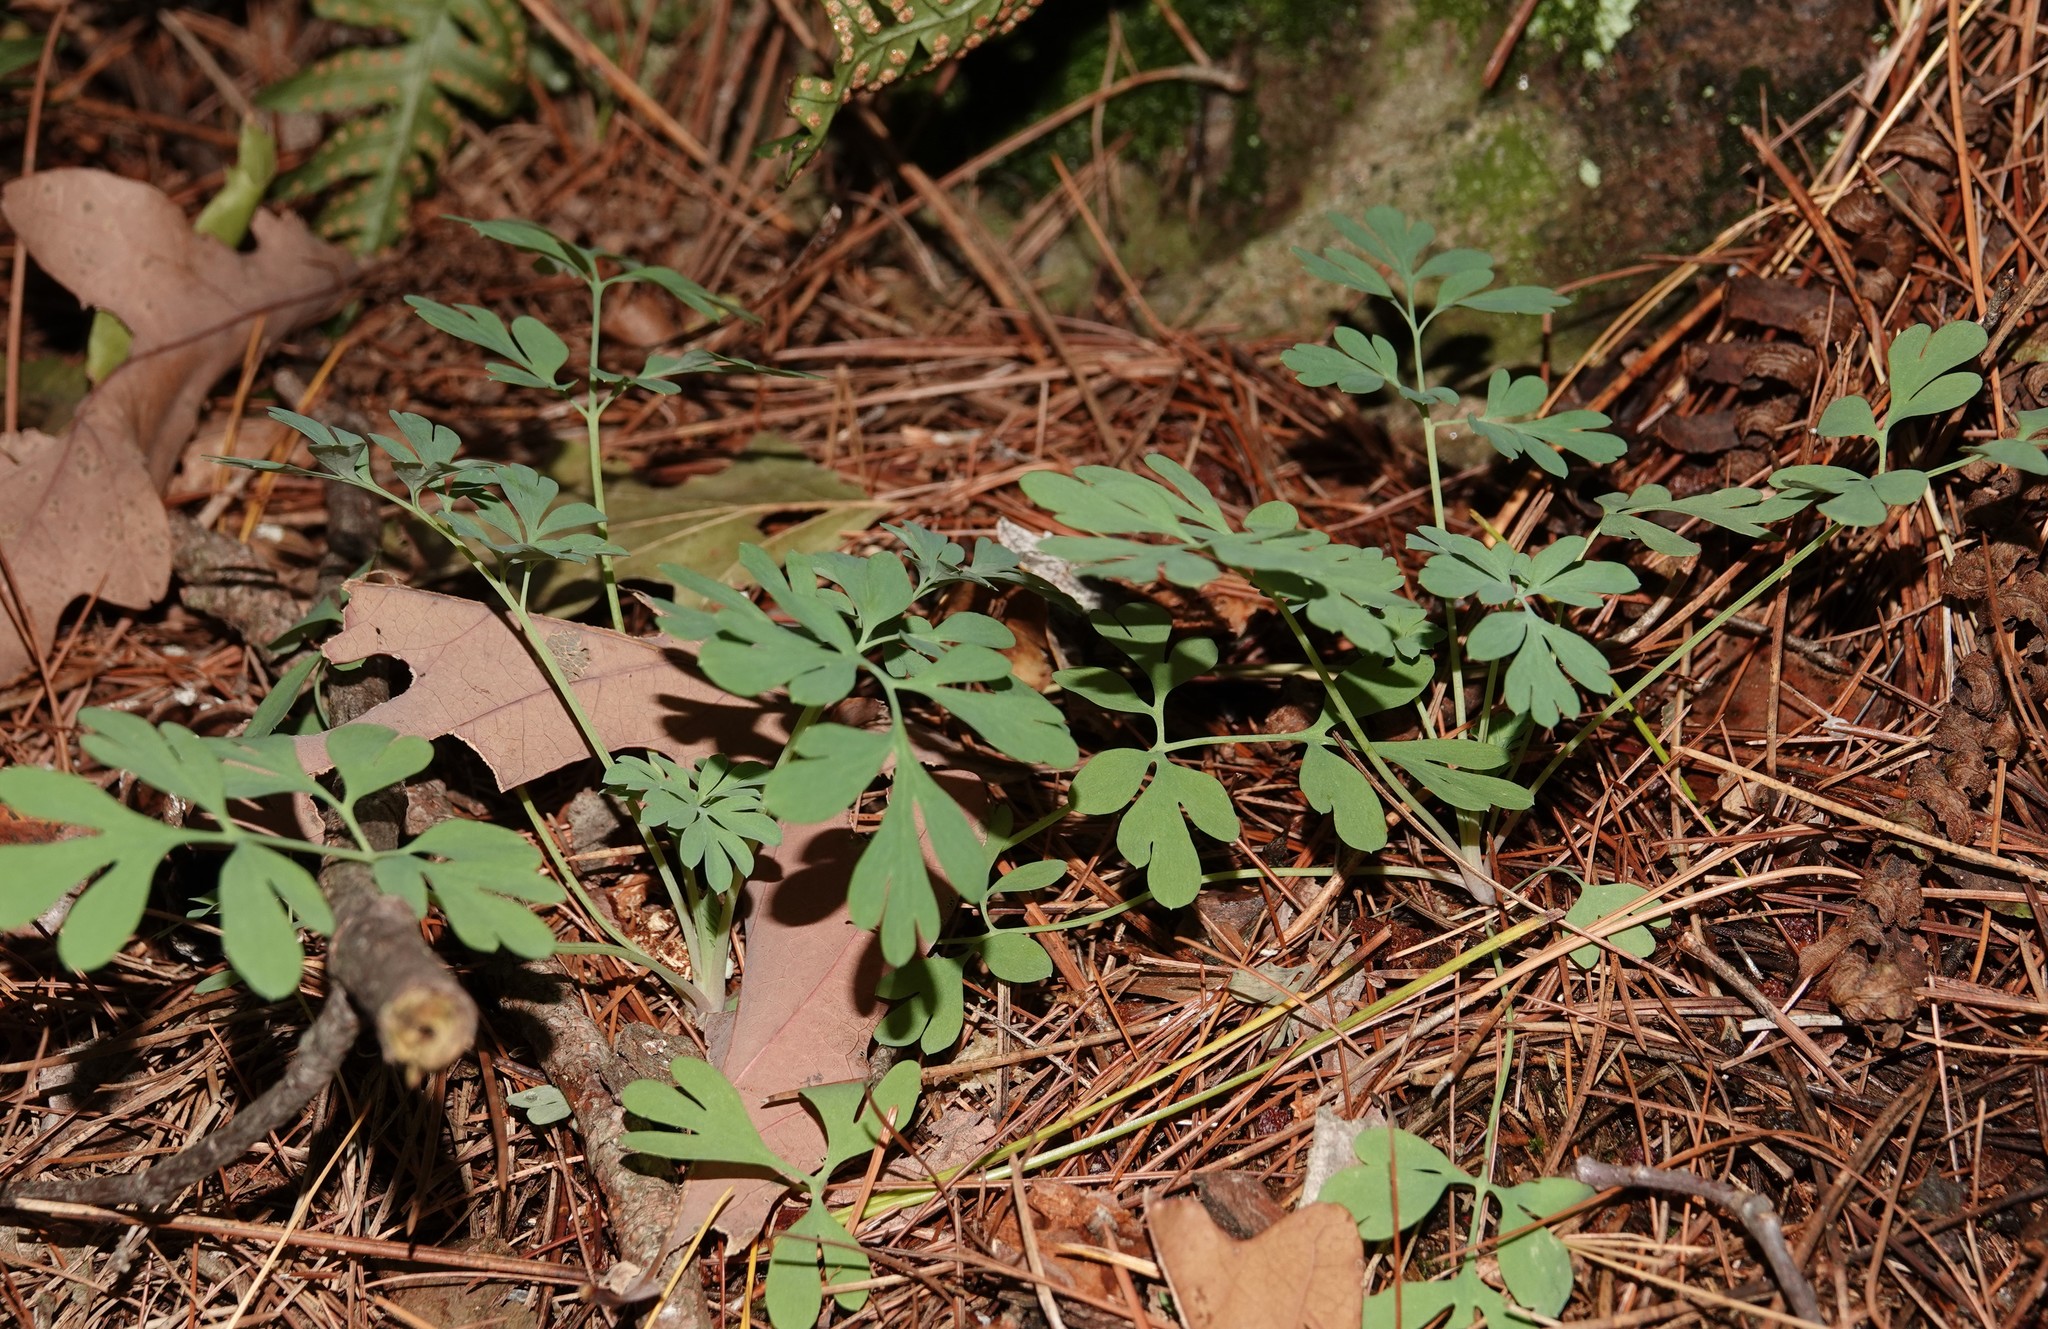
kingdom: Plantae
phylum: Tracheophyta
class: Magnoliopsida
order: Ranunculales
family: Papaveraceae
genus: Capnoides
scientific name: Capnoides sempervirens
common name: Rock harlequin
